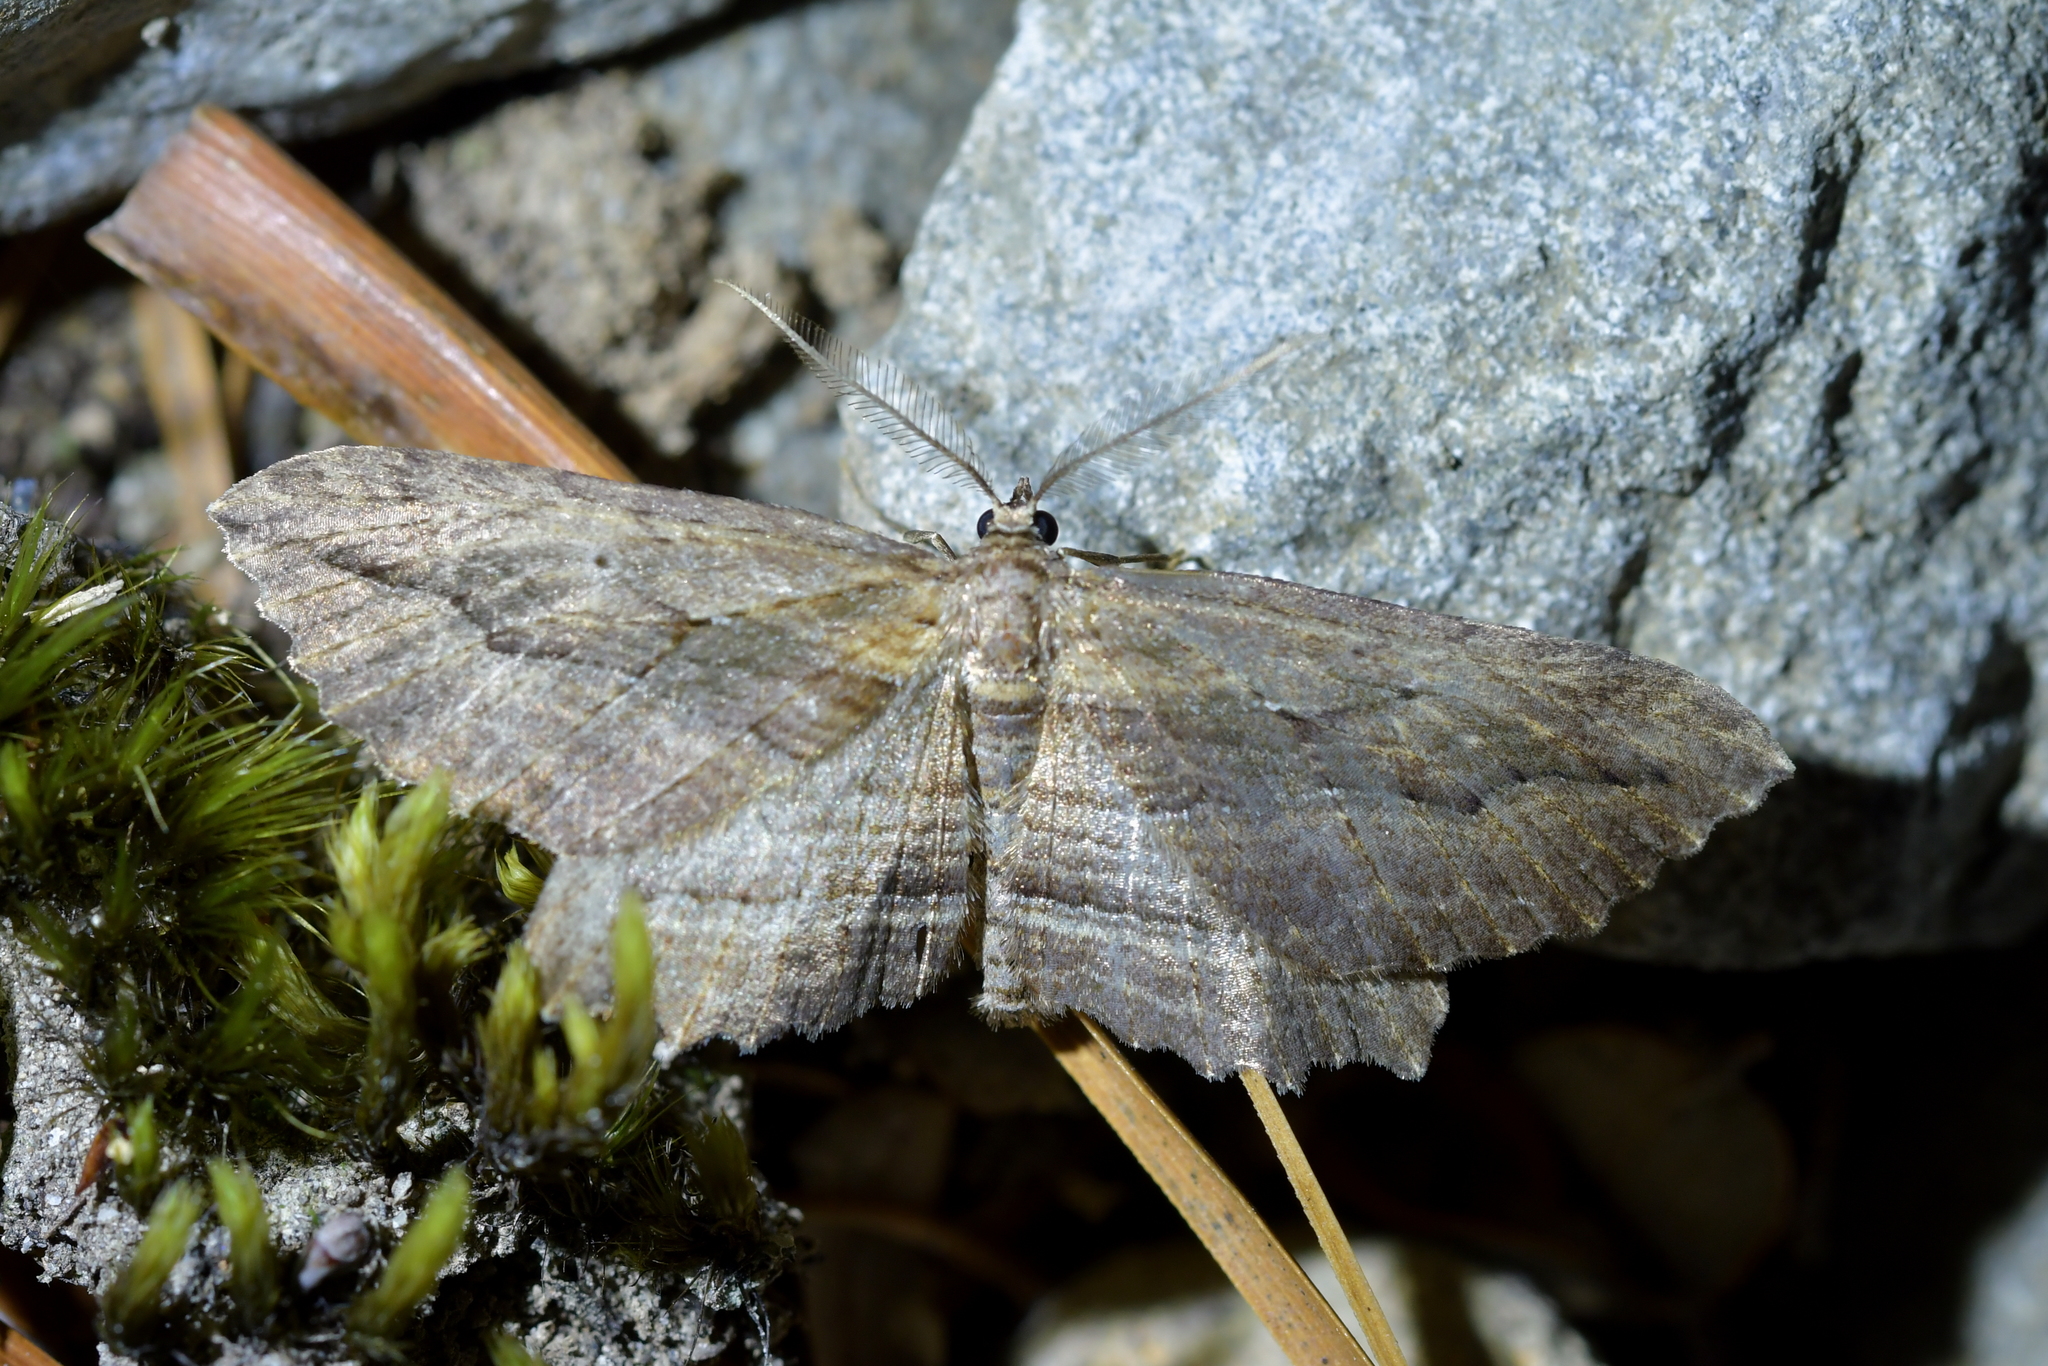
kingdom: Animalia
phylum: Arthropoda
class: Insecta
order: Lepidoptera
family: Geometridae
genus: Aponotoreas
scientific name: Aponotoreas dissimilis
